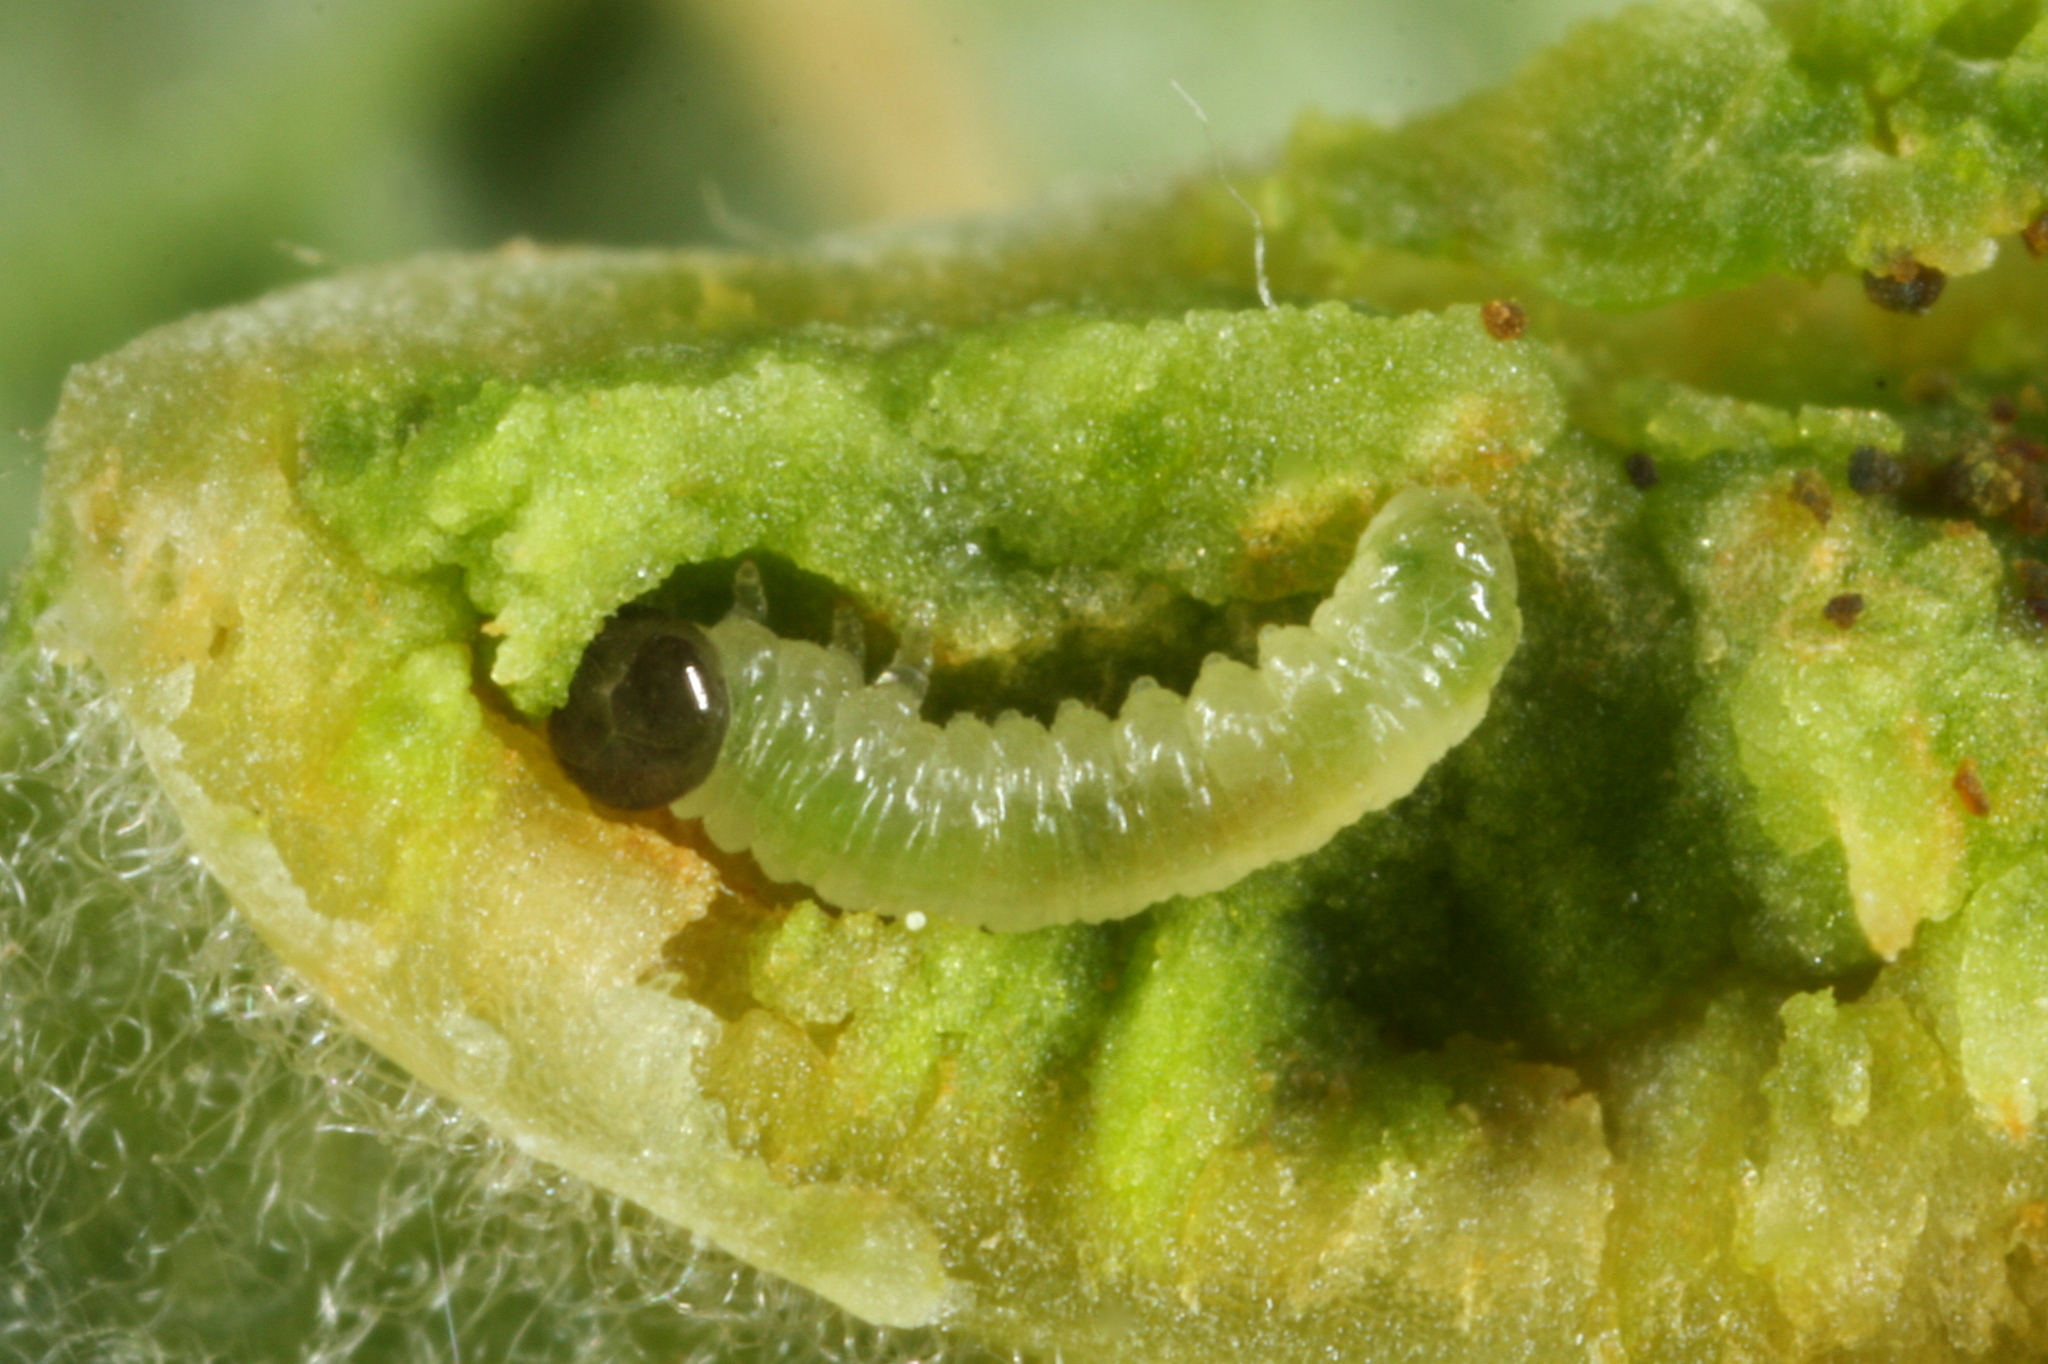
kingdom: Animalia
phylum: Arthropoda
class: Insecta
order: Hymenoptera
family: Tenthredinidae
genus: Pontania
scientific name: Pontania bridgmanii
